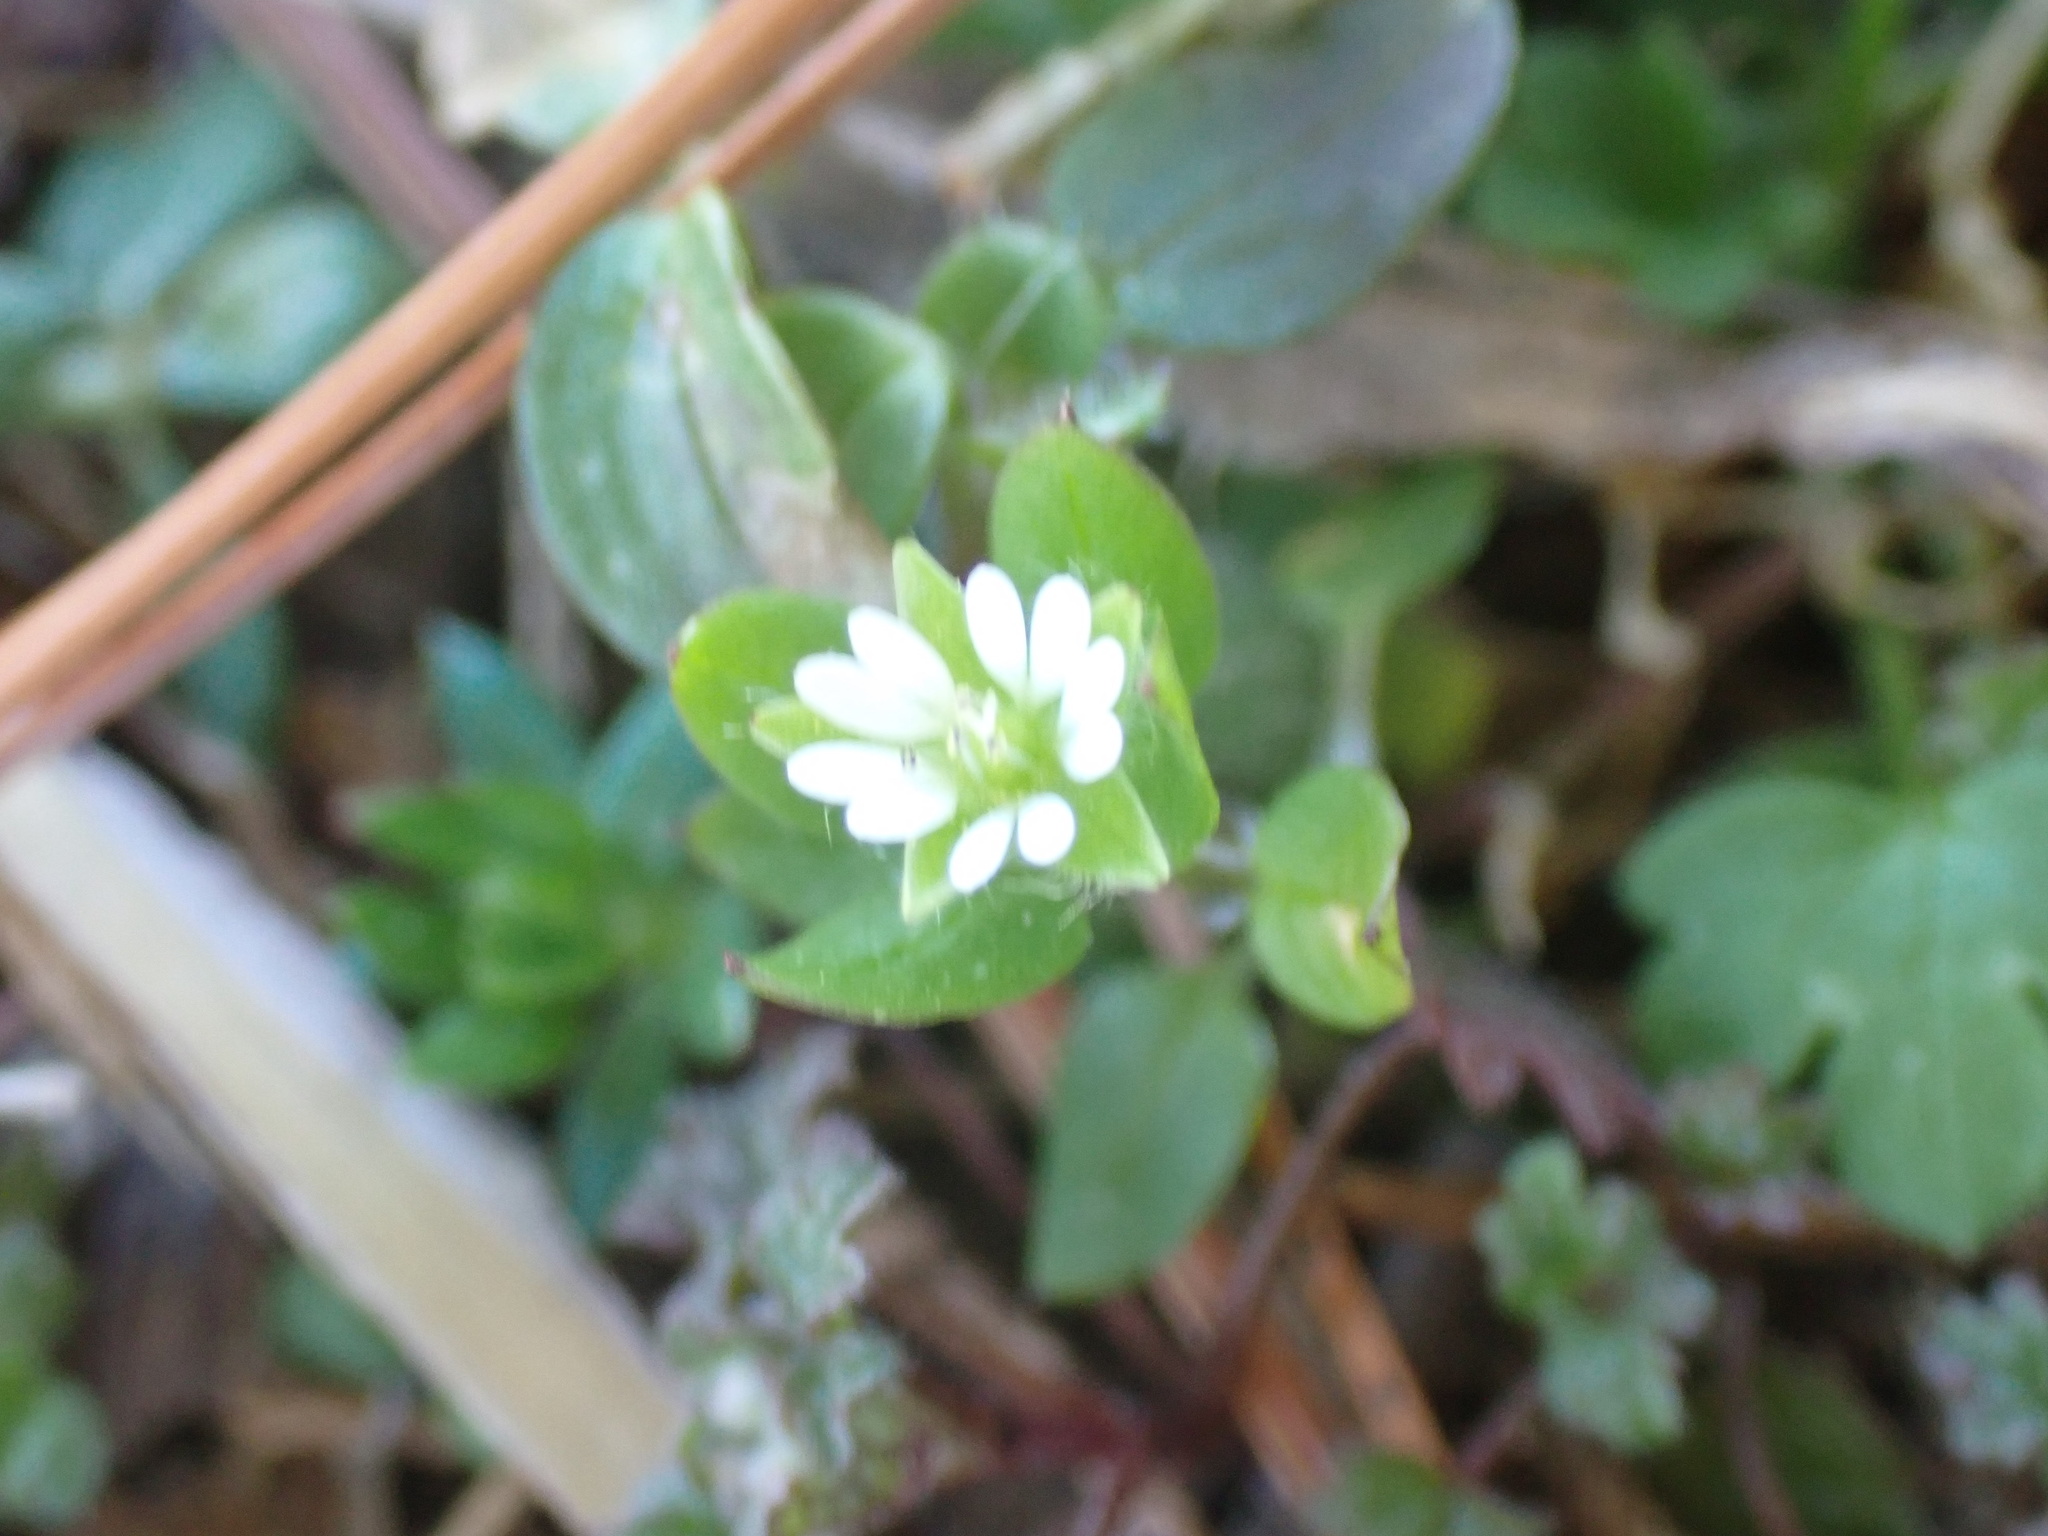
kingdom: Plantae
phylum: Tracheophyta
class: Magnoliopsida
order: Caryophyllales
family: Caryophyllaceae
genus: Stellaria
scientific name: Stellaria media
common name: Common chickweed
